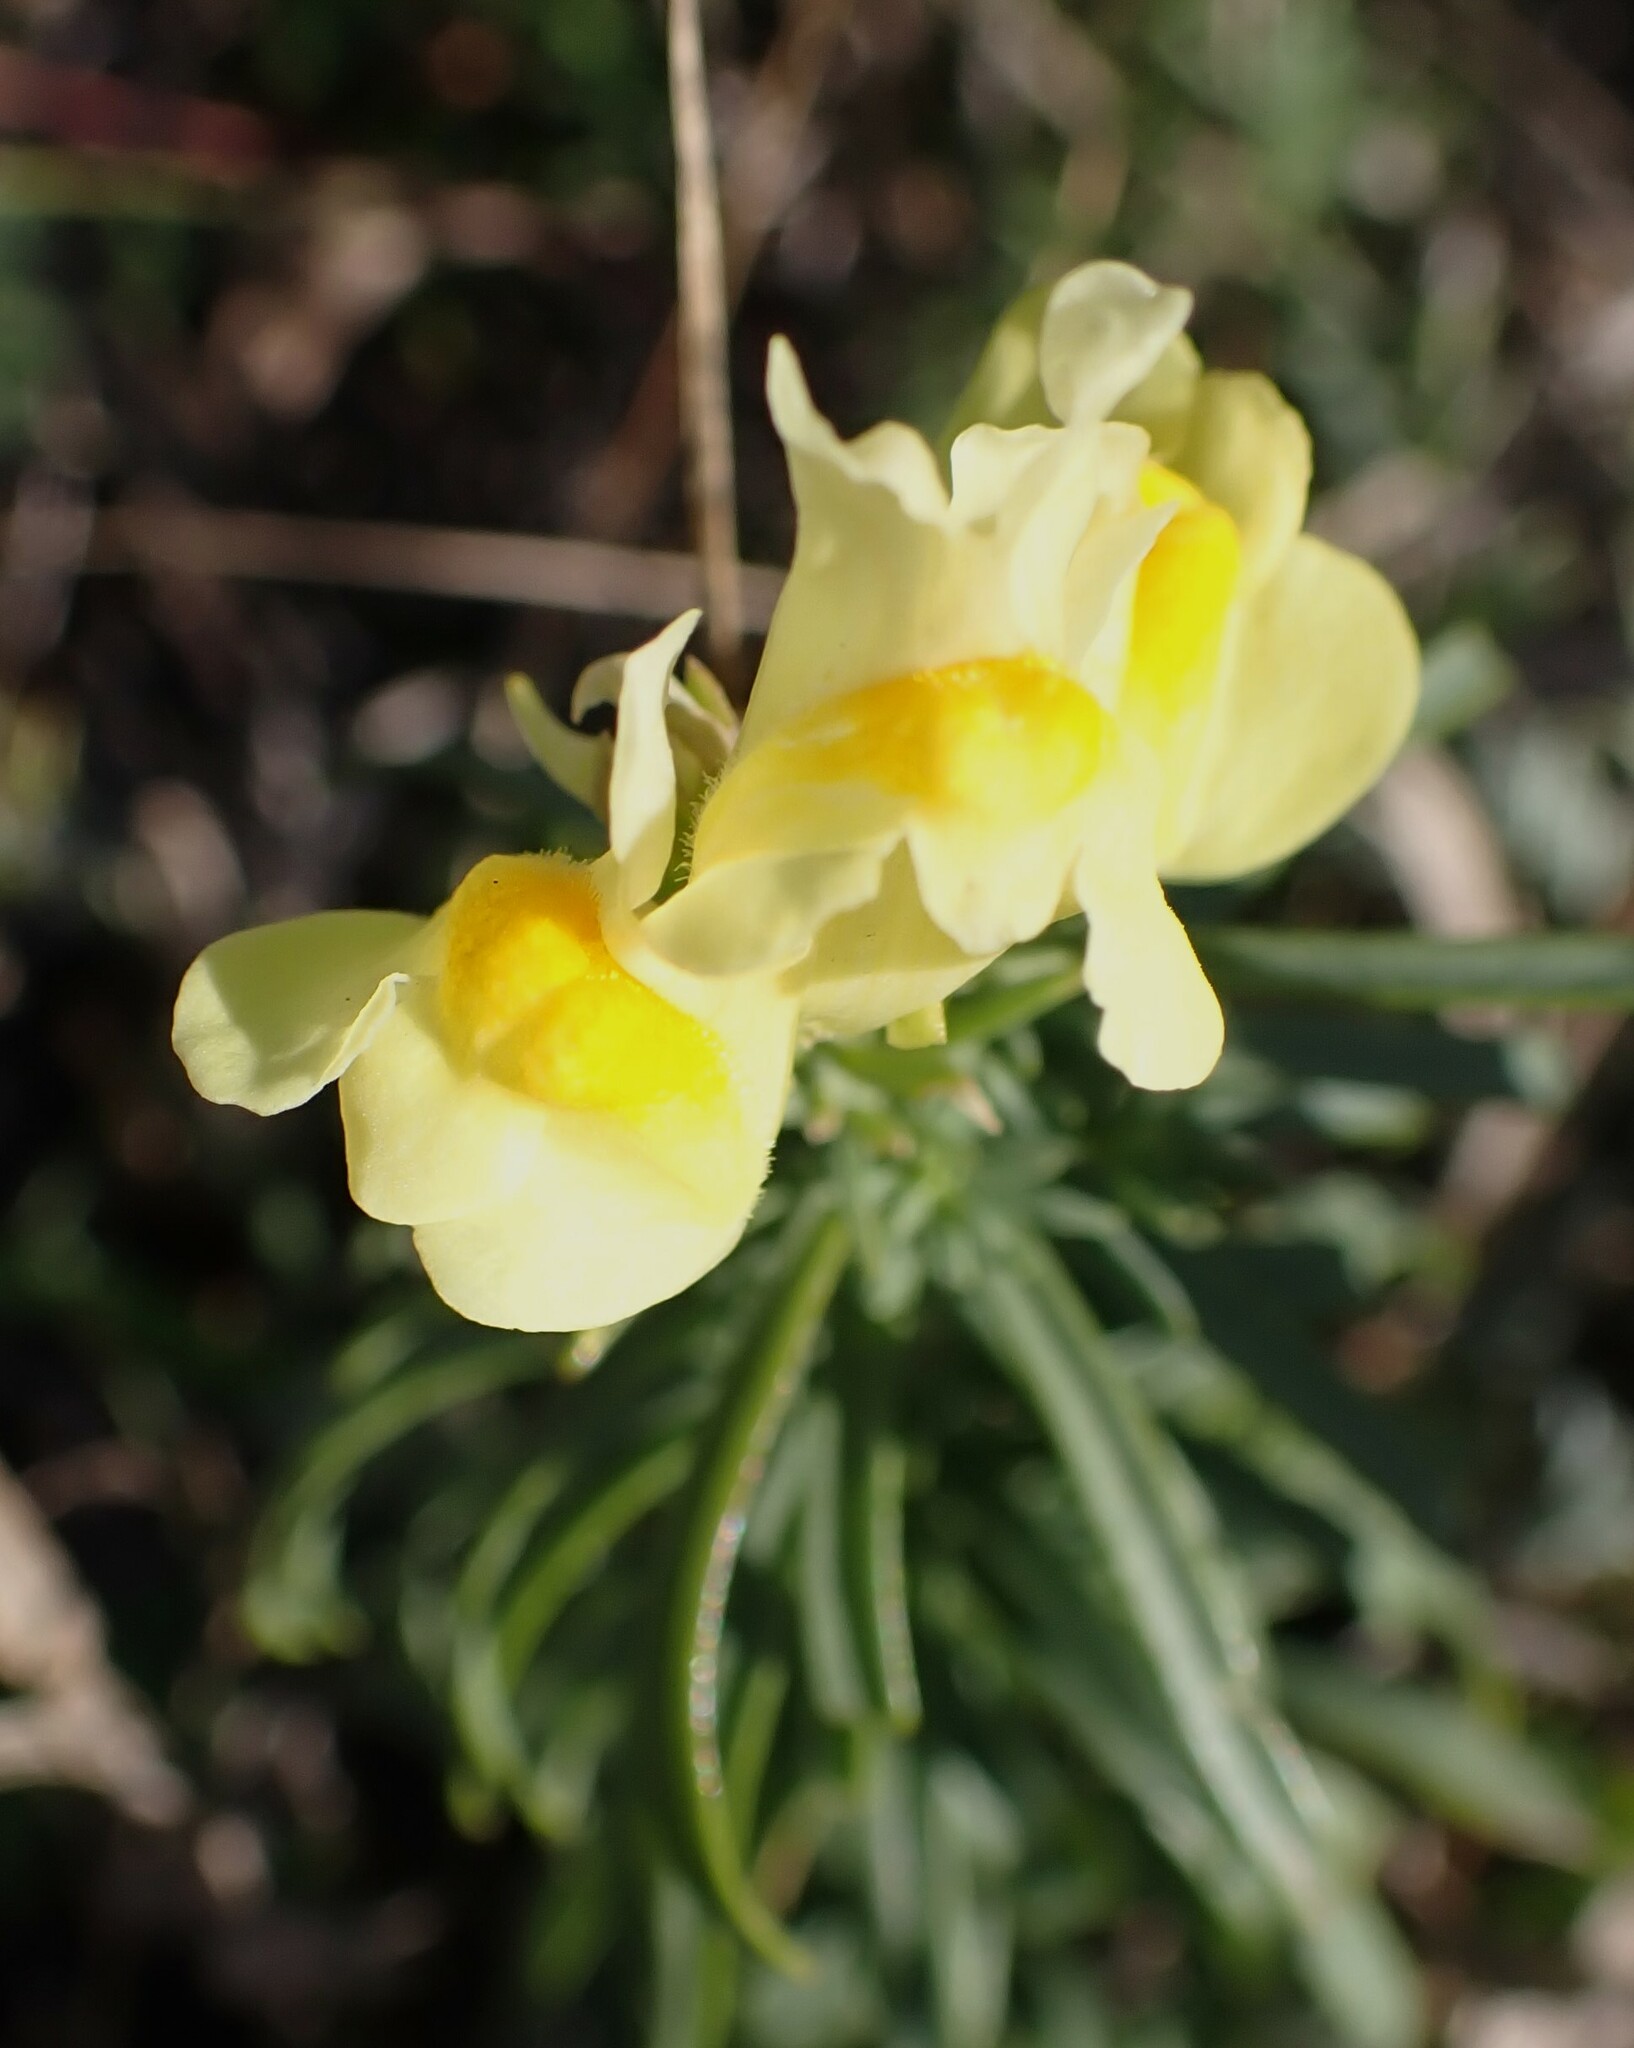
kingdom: Plantae
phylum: Tracheophyta
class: Magnoliopsida
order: Lamiales
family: Plantaginaceae
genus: Linaria
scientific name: Linaria vulgaris
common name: Butter and eggs
